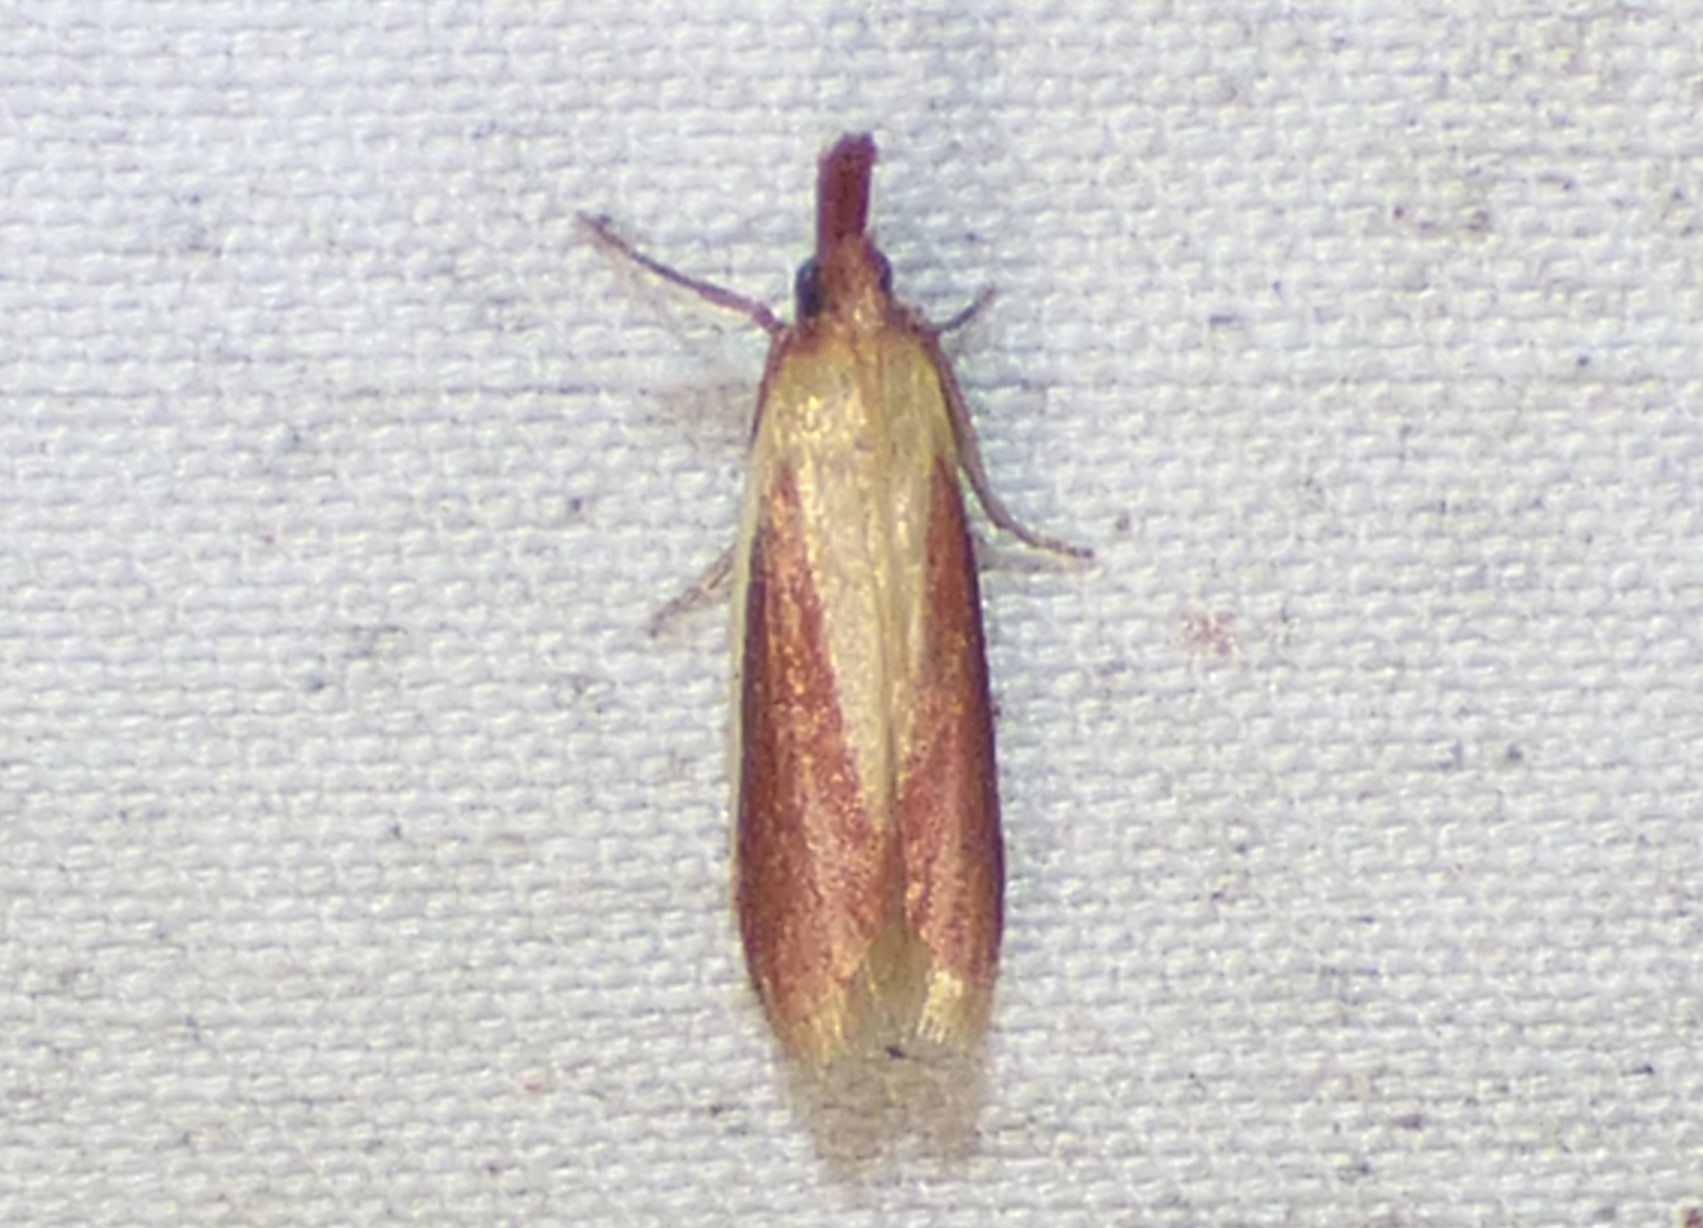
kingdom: Animalia
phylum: Arthropoda
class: Insecta
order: Lepidoptera
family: Pyralidae
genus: Peoria
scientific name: Peoria approximella
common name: Carmine snout
